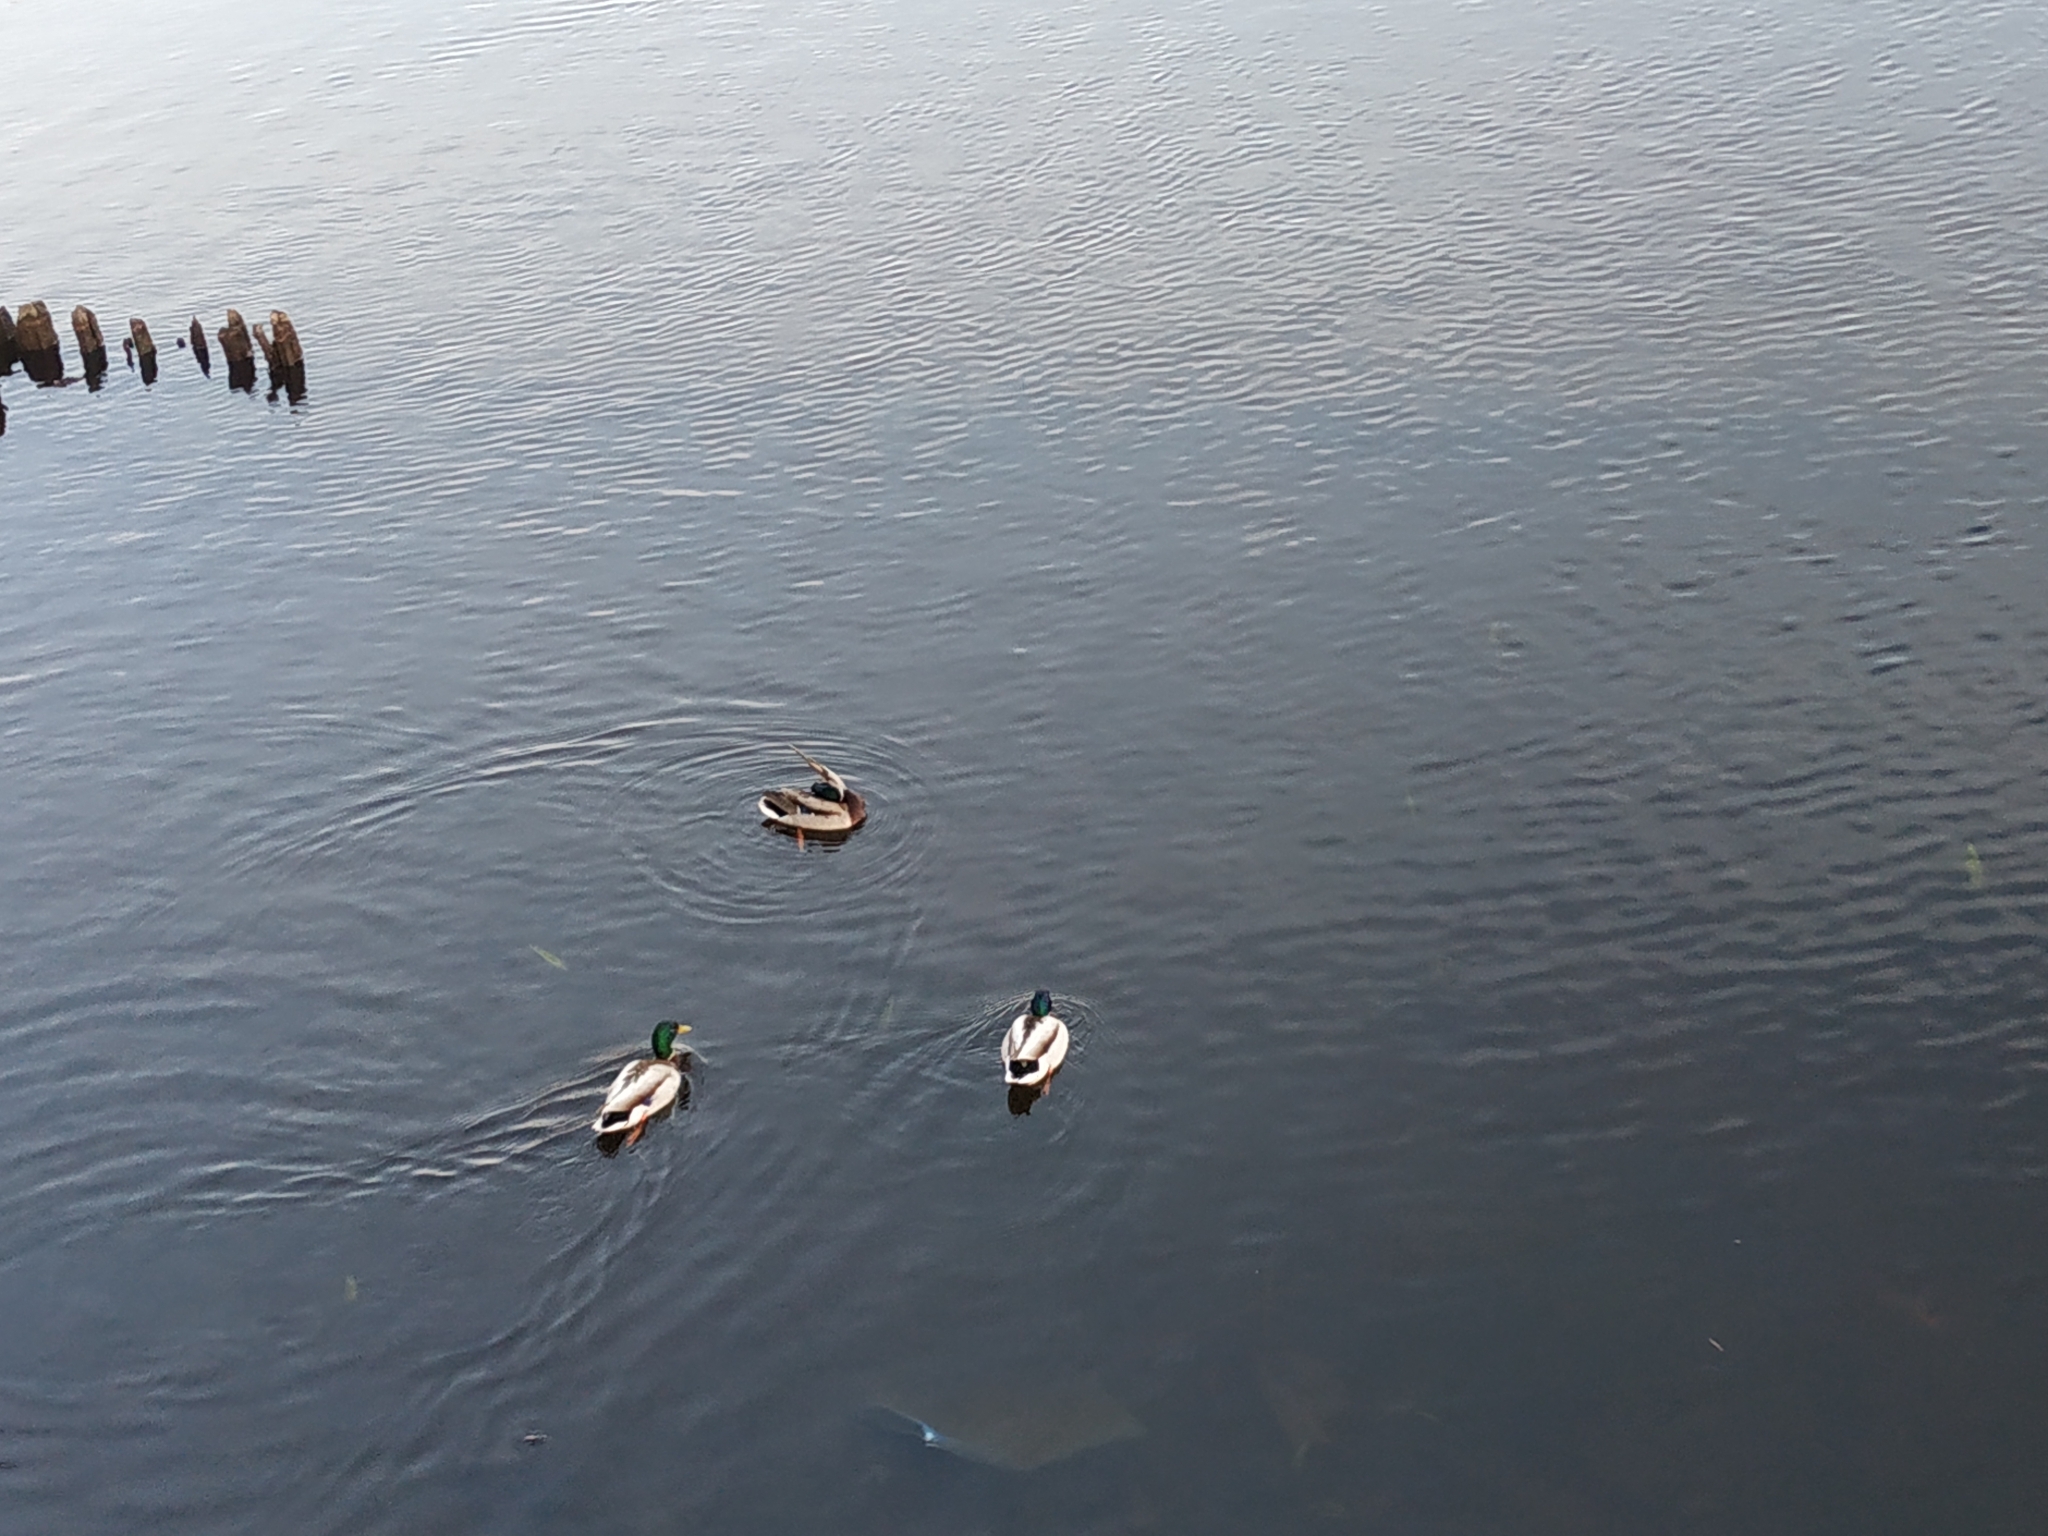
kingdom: Animalia
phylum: Chordata
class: Aves
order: Anseriformes
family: Anatidae
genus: Anas
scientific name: Anas platyrhynchos
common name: Mallard
